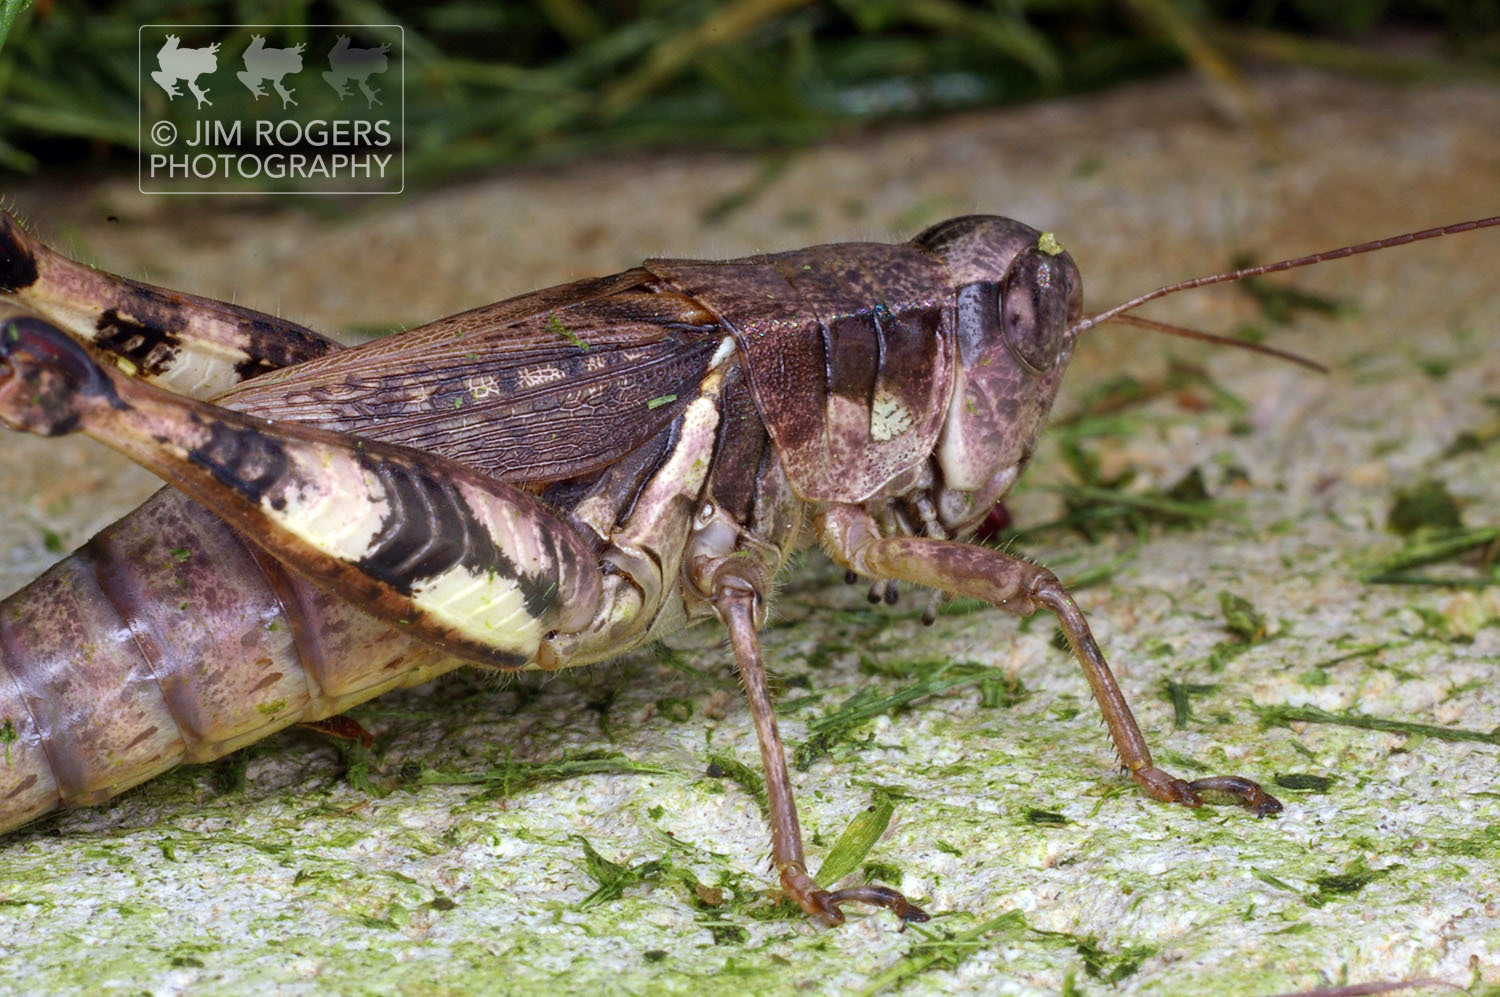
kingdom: Animalia
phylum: Arthropoda
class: Insecta
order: Orthoptera
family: Acrididae
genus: Melanoplus
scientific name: Melanoplus walshii
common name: Walsh's locust
